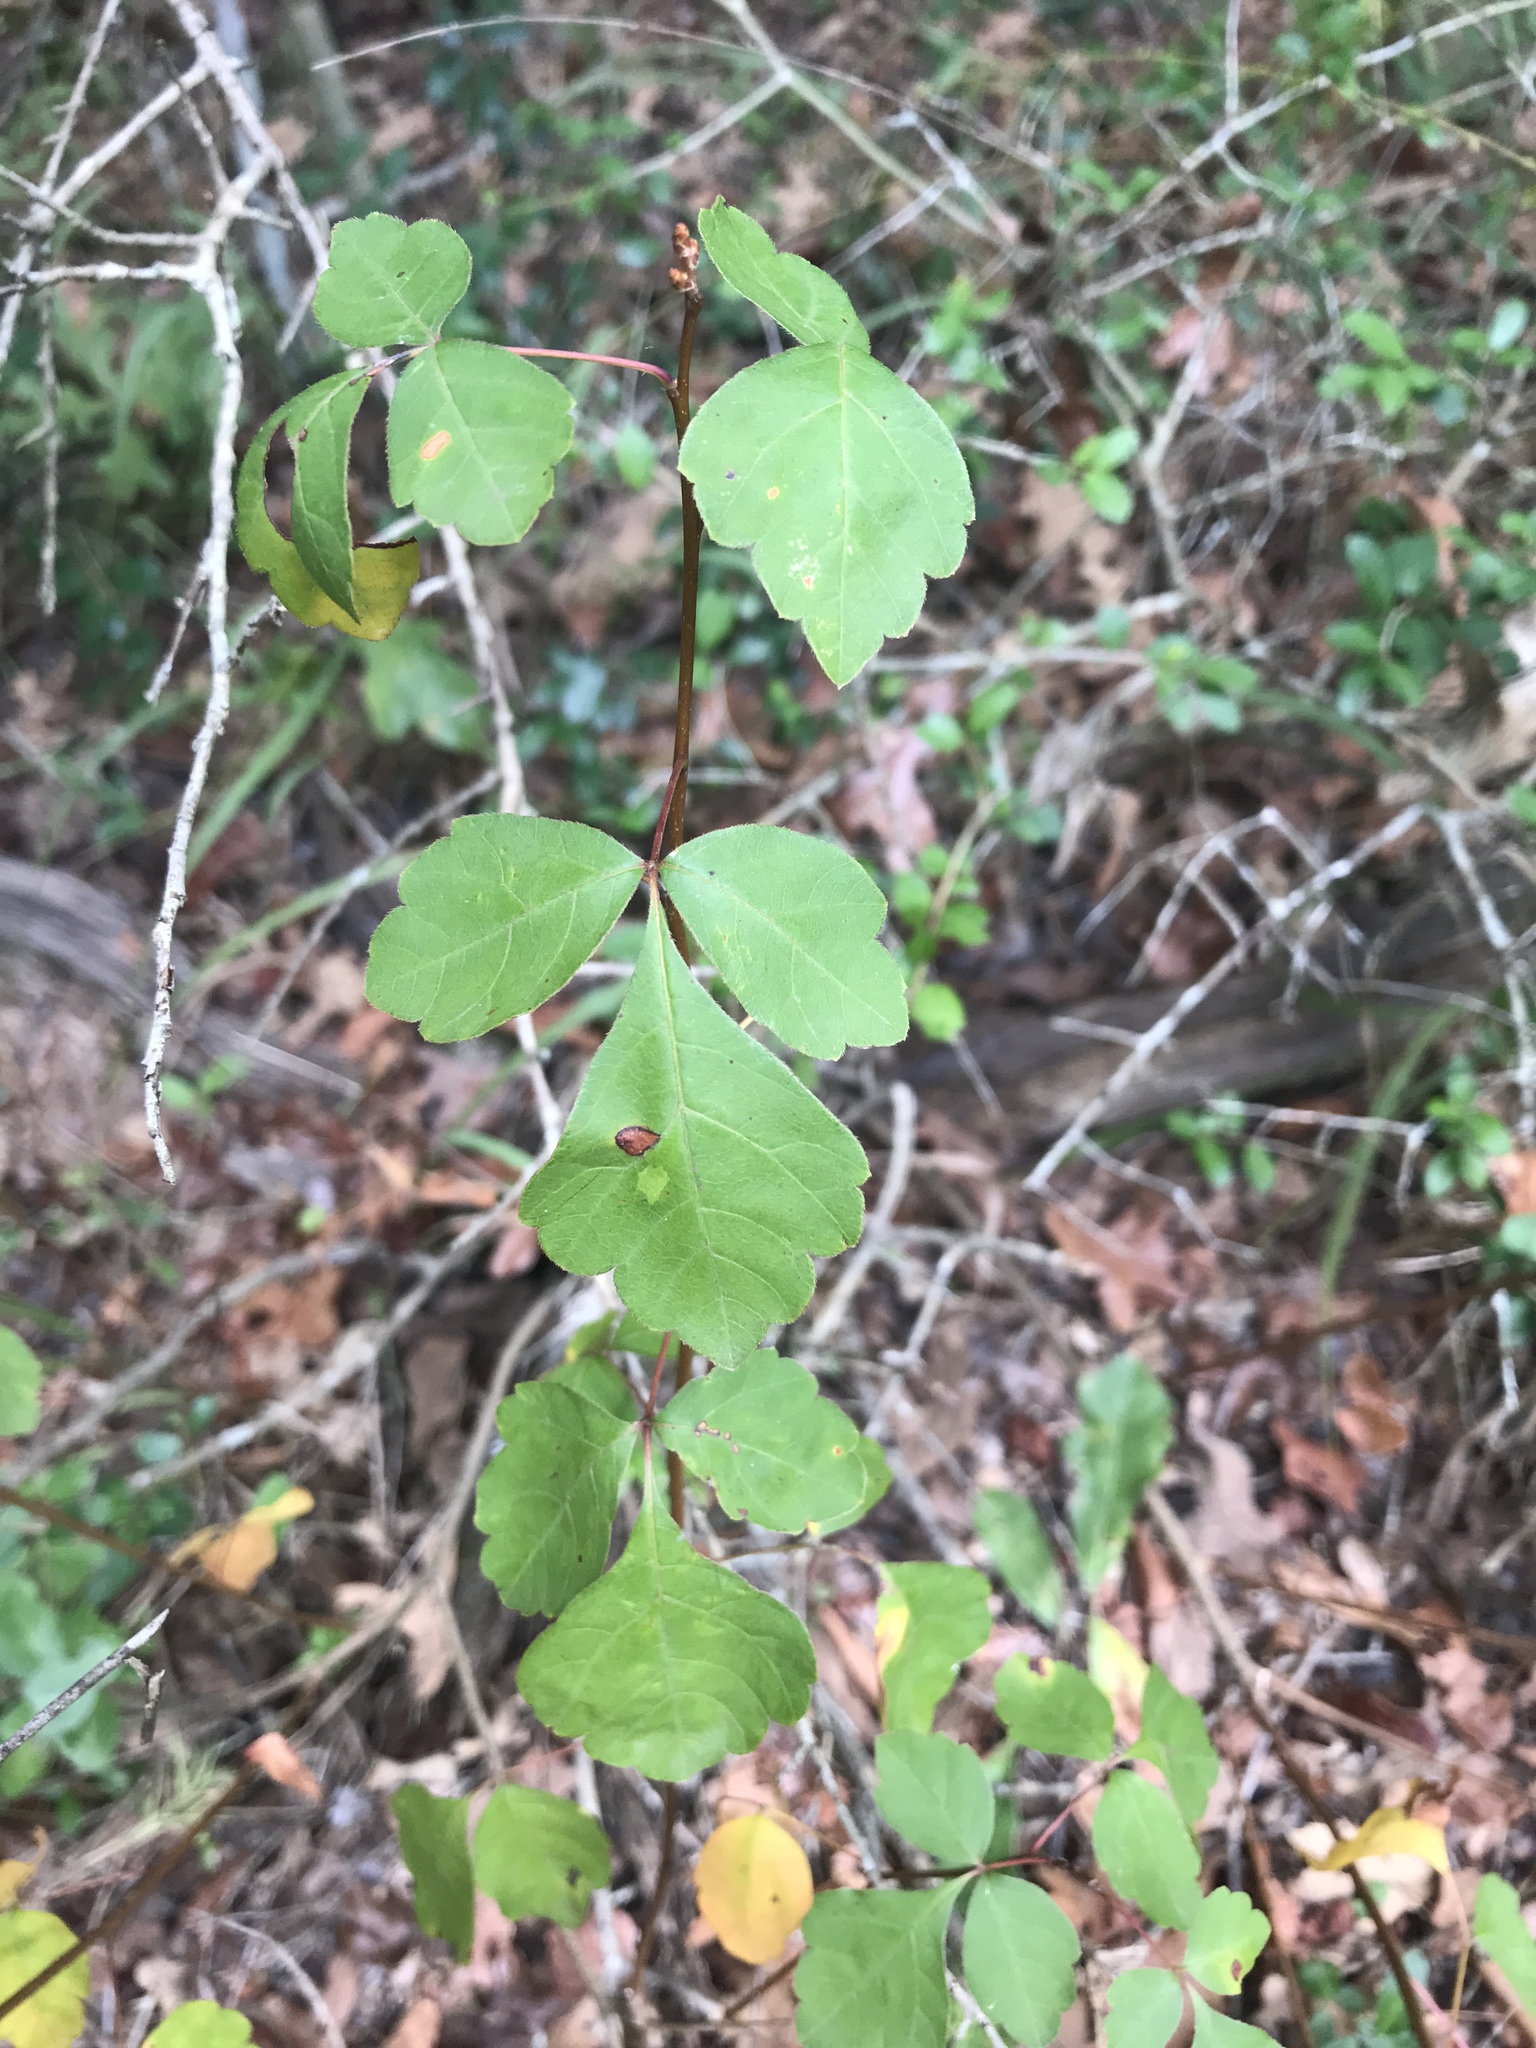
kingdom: Plantae
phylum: Tracheophyta
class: Magnoliopsida
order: Sapindales
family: Anacardiaceae
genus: Rhus
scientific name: Rhus aromatica
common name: Aromatic sumac
